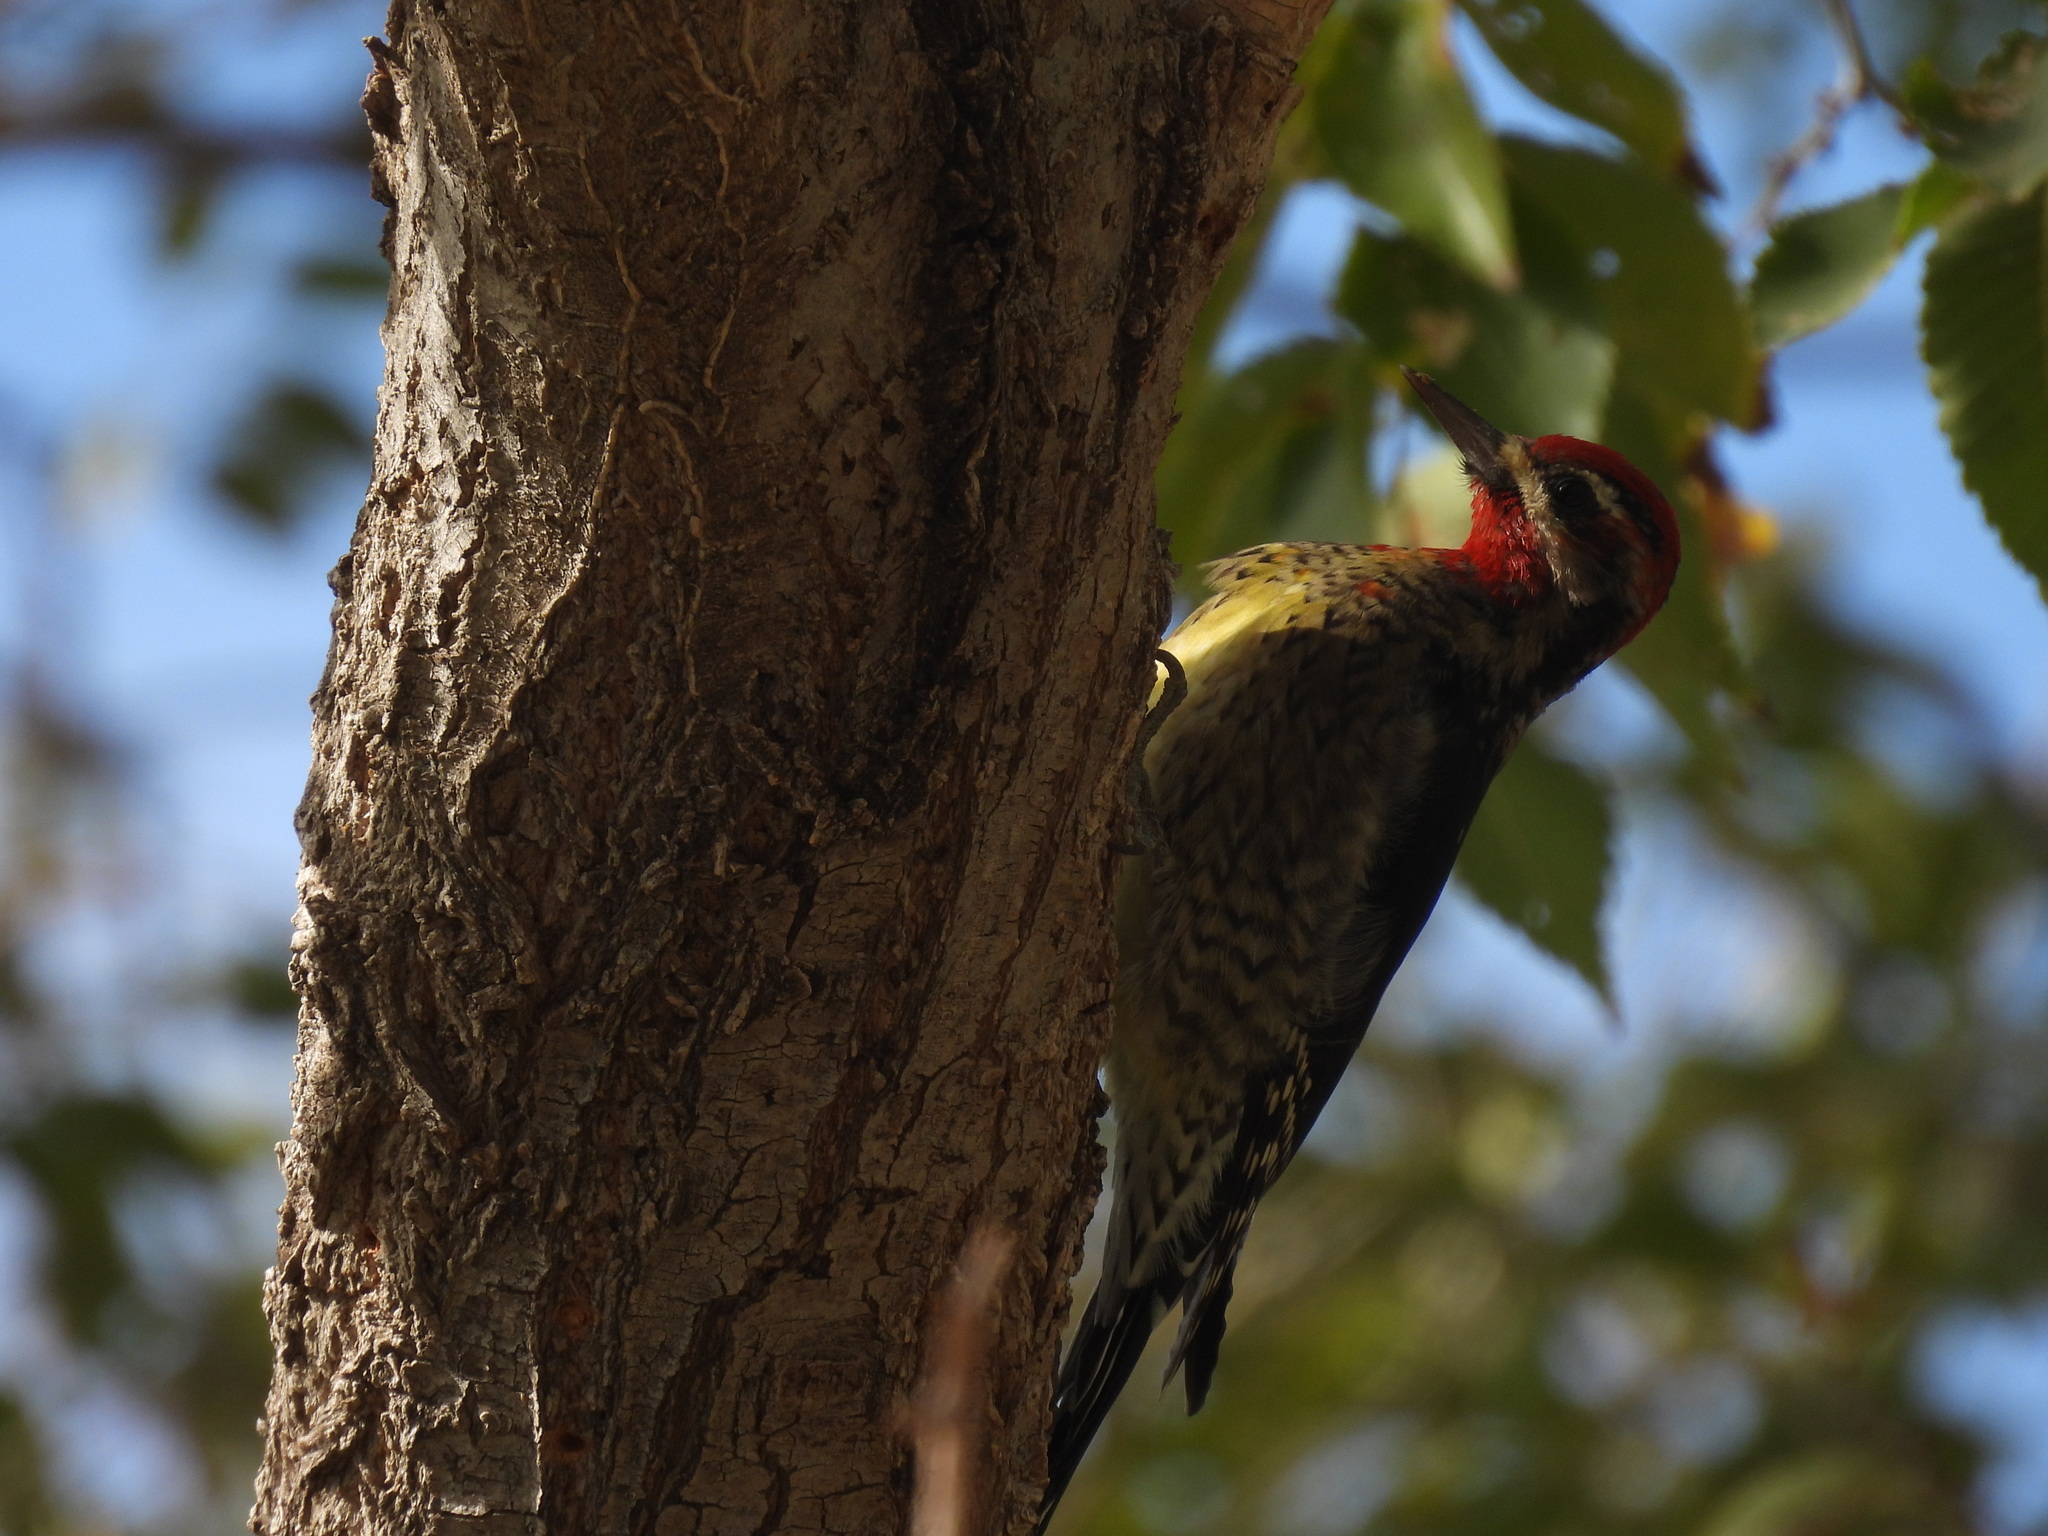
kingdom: Animalia
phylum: Chordata
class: Aves
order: Piciformes
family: Picidae
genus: Sphyrapicus
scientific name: Sphyrapicus
